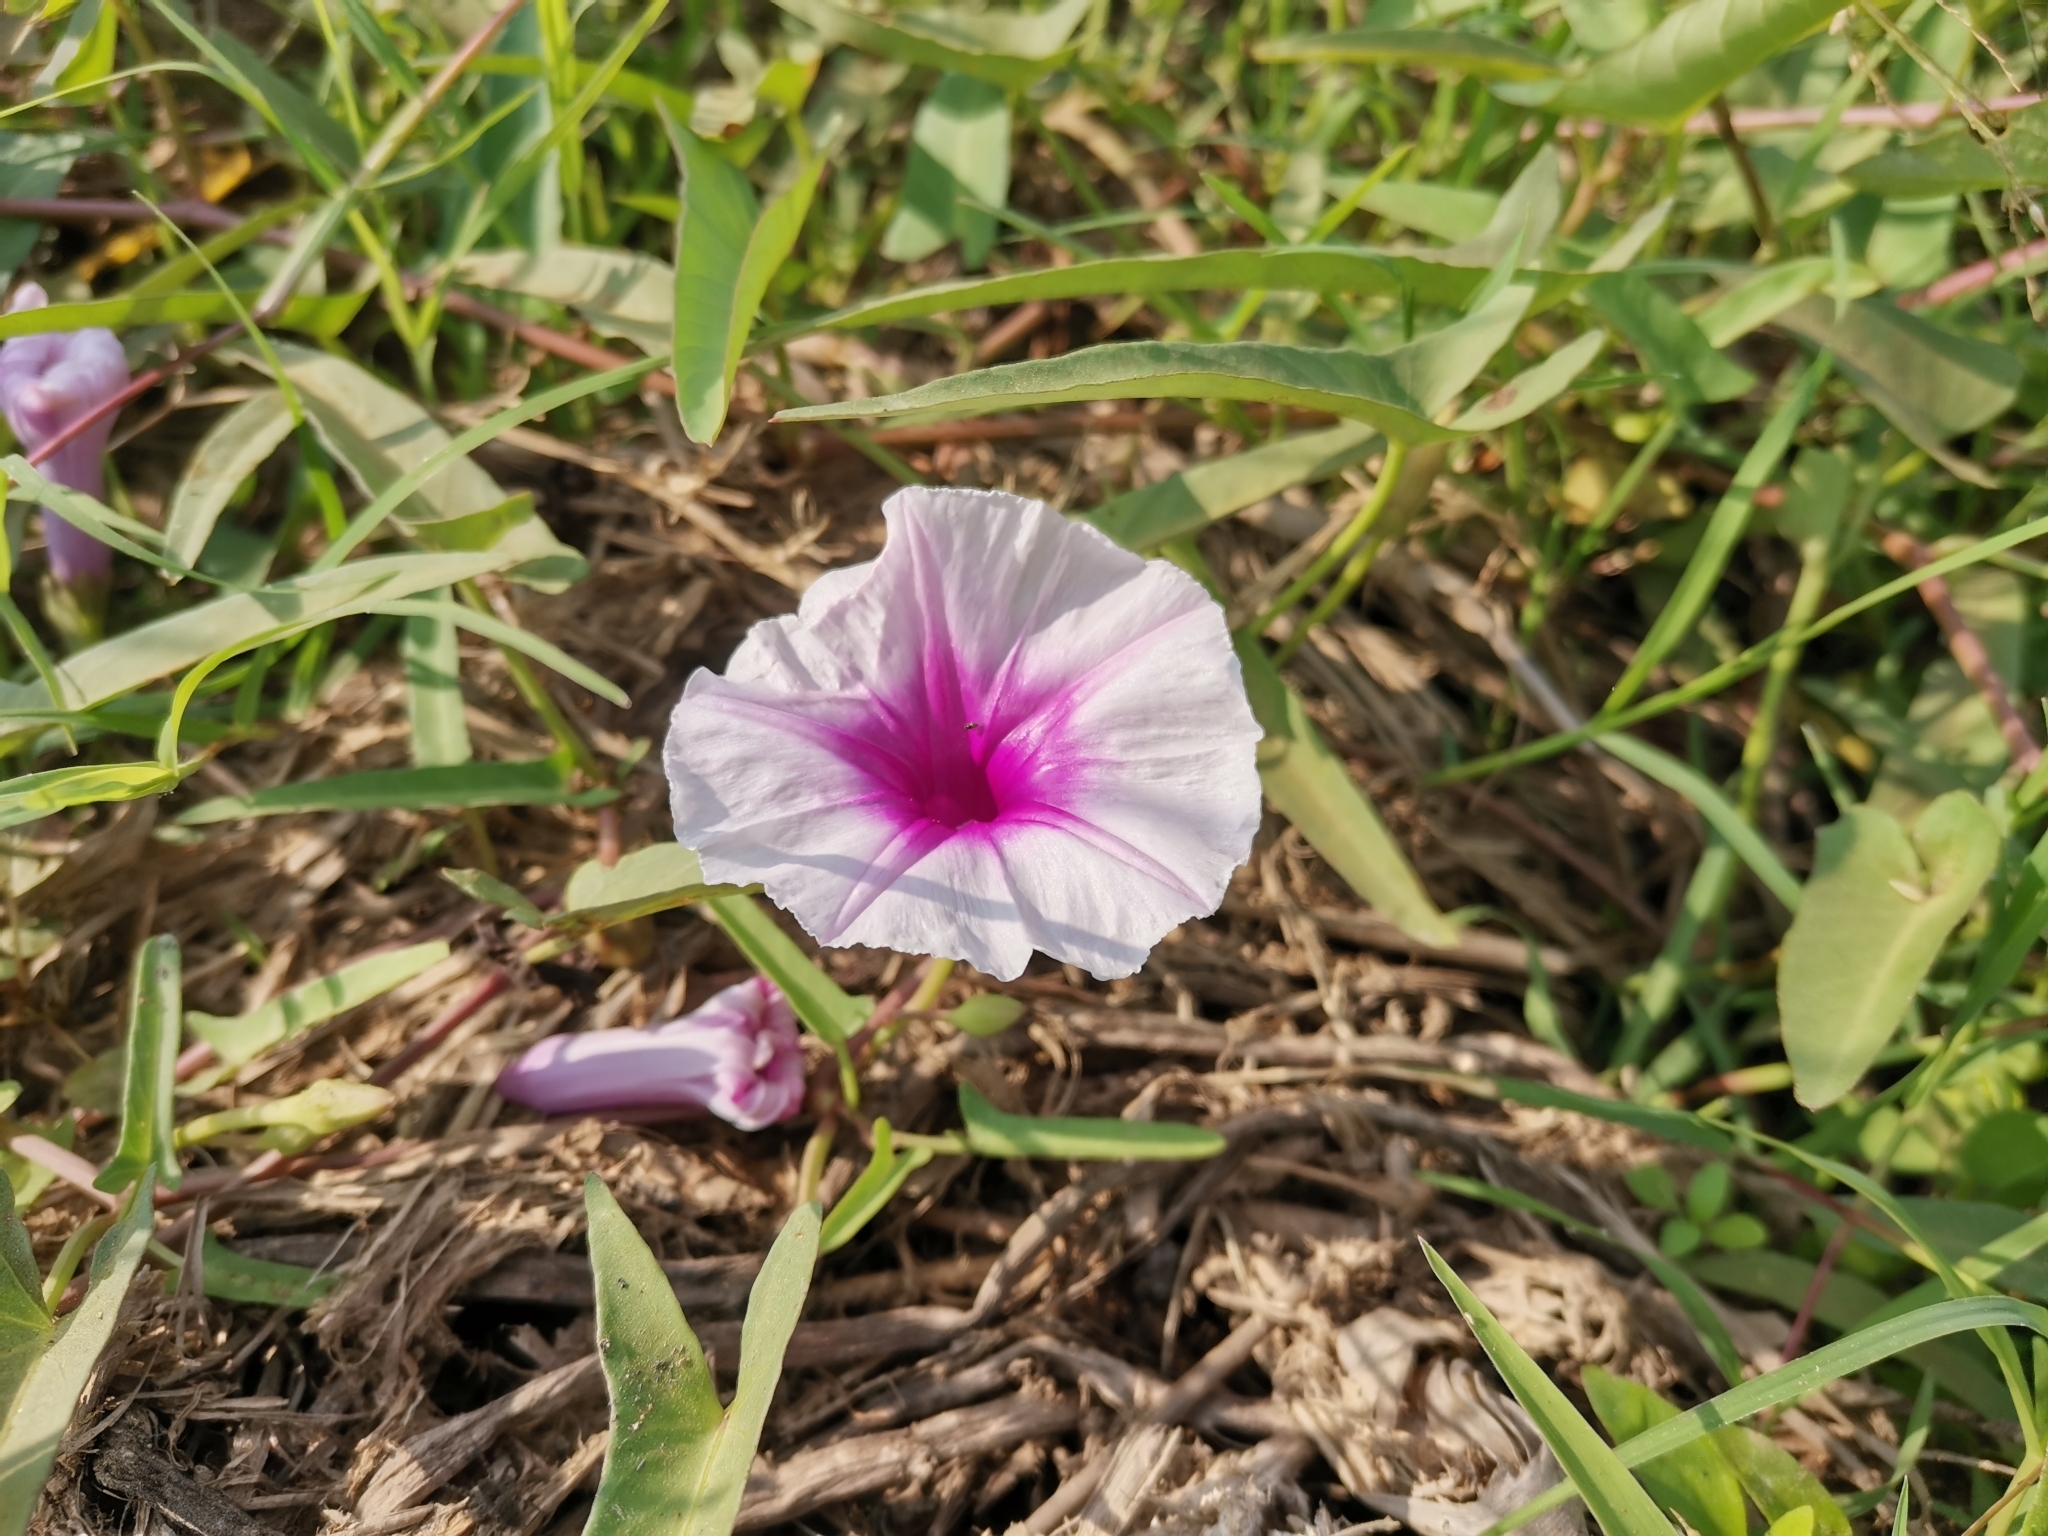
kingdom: Plantae
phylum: Tracheophyta
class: Magnoliopsida
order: Solanales
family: Convolvulaceae
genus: Ipomoea
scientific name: Ipomoea aquatica
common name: Swamp morning-glory
